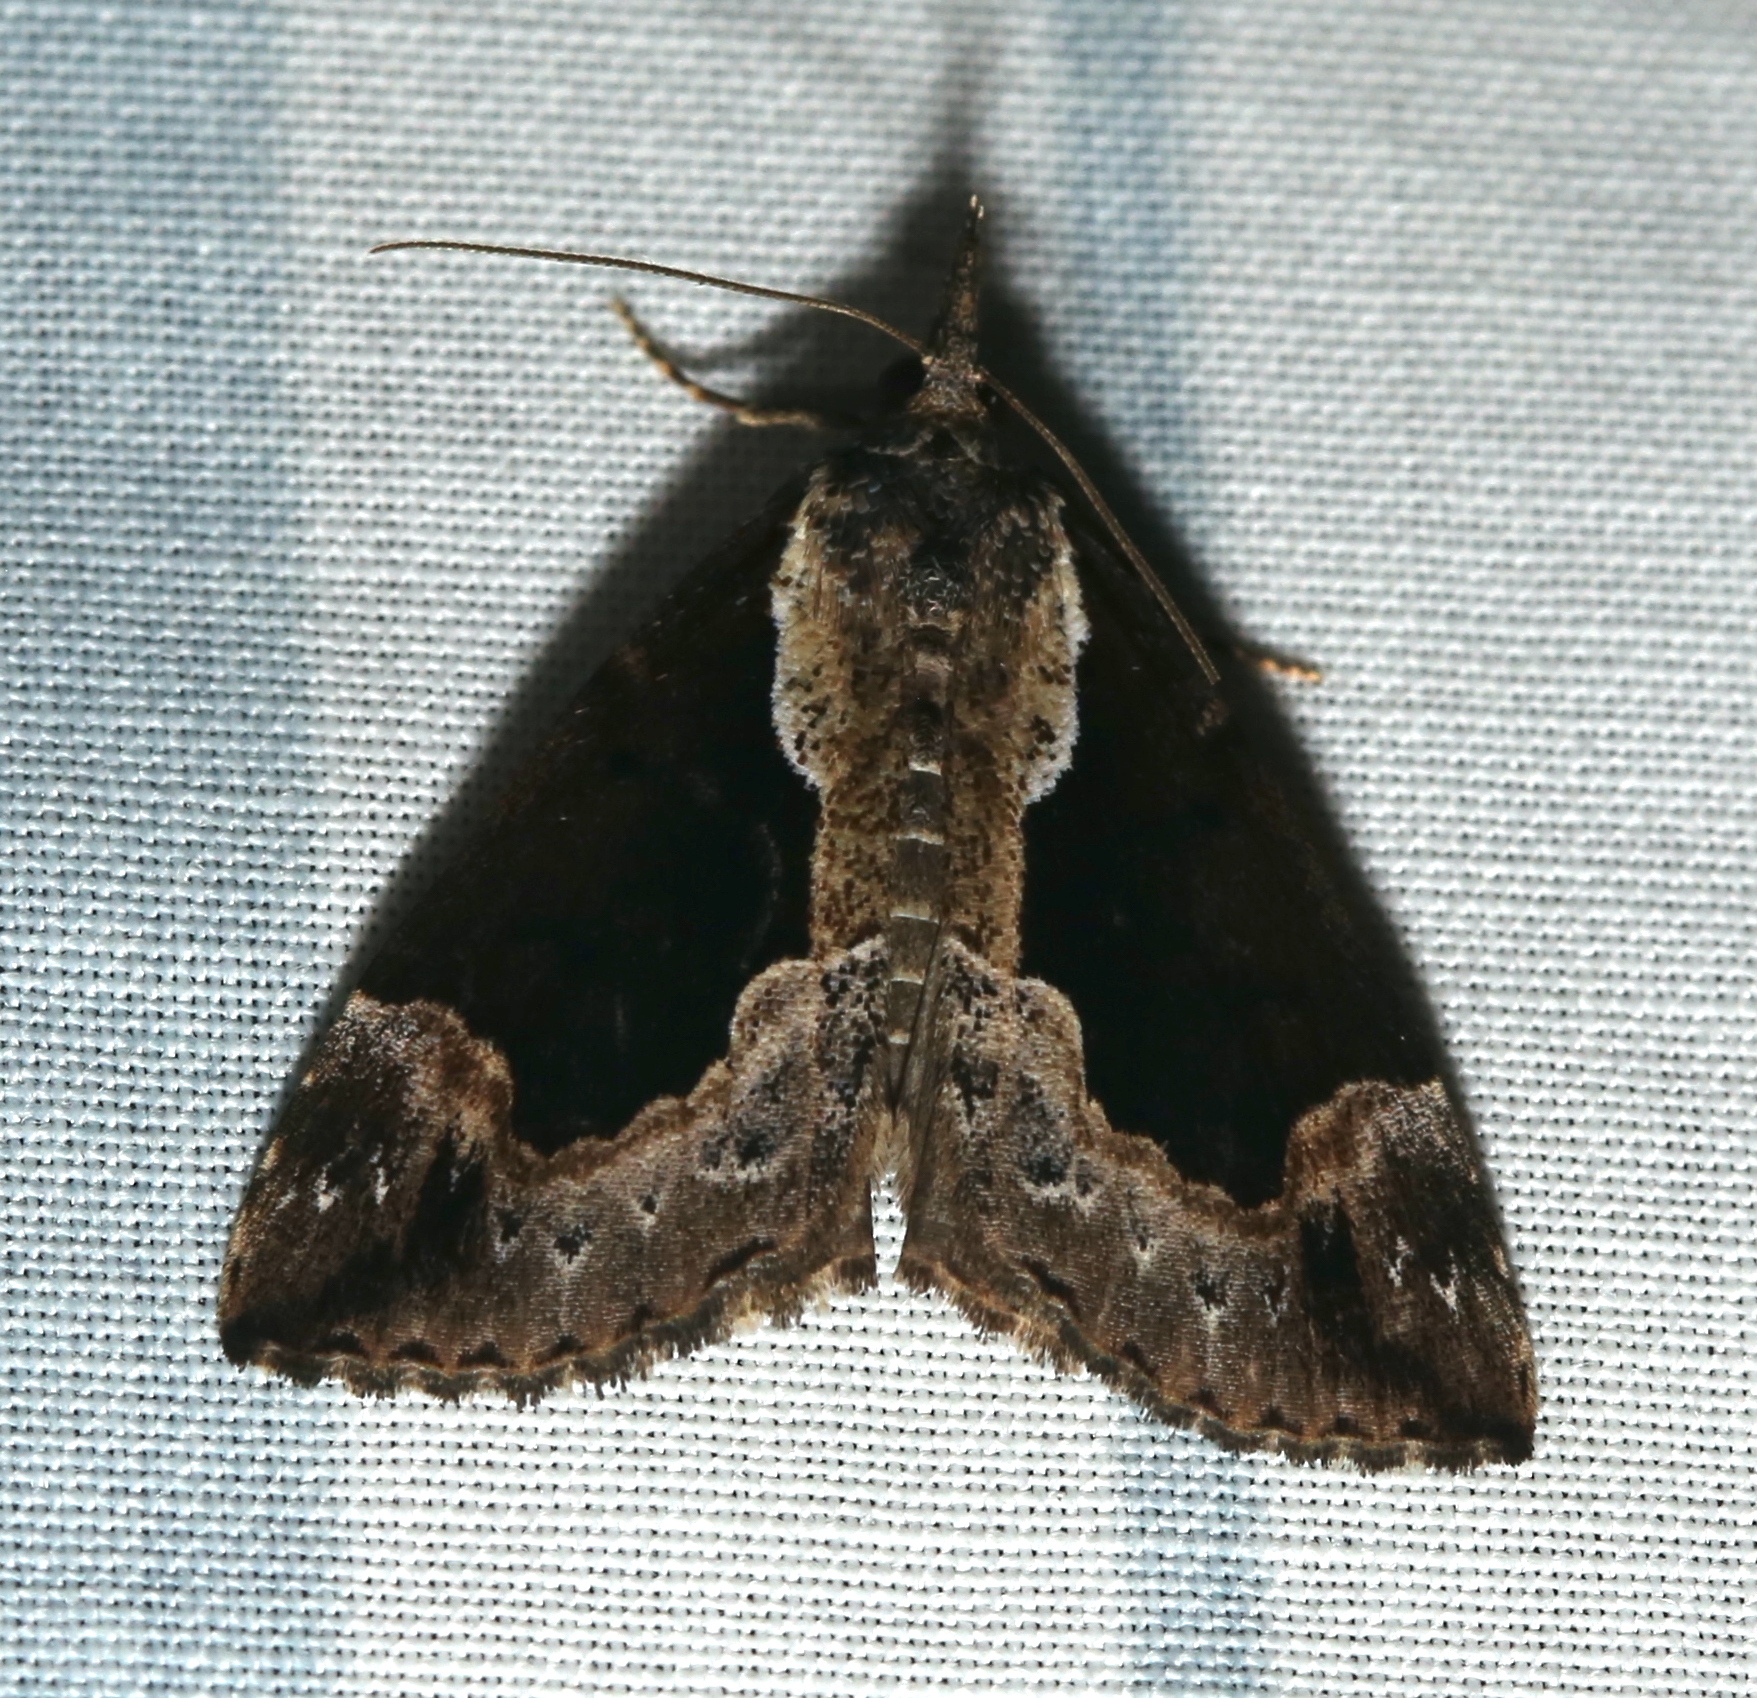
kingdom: Animalia
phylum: Arthropoda
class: Insecta
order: Lepidoptera
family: Erebidae
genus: Hypena
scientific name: Hypena baltimoralis
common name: Baltimore snout
